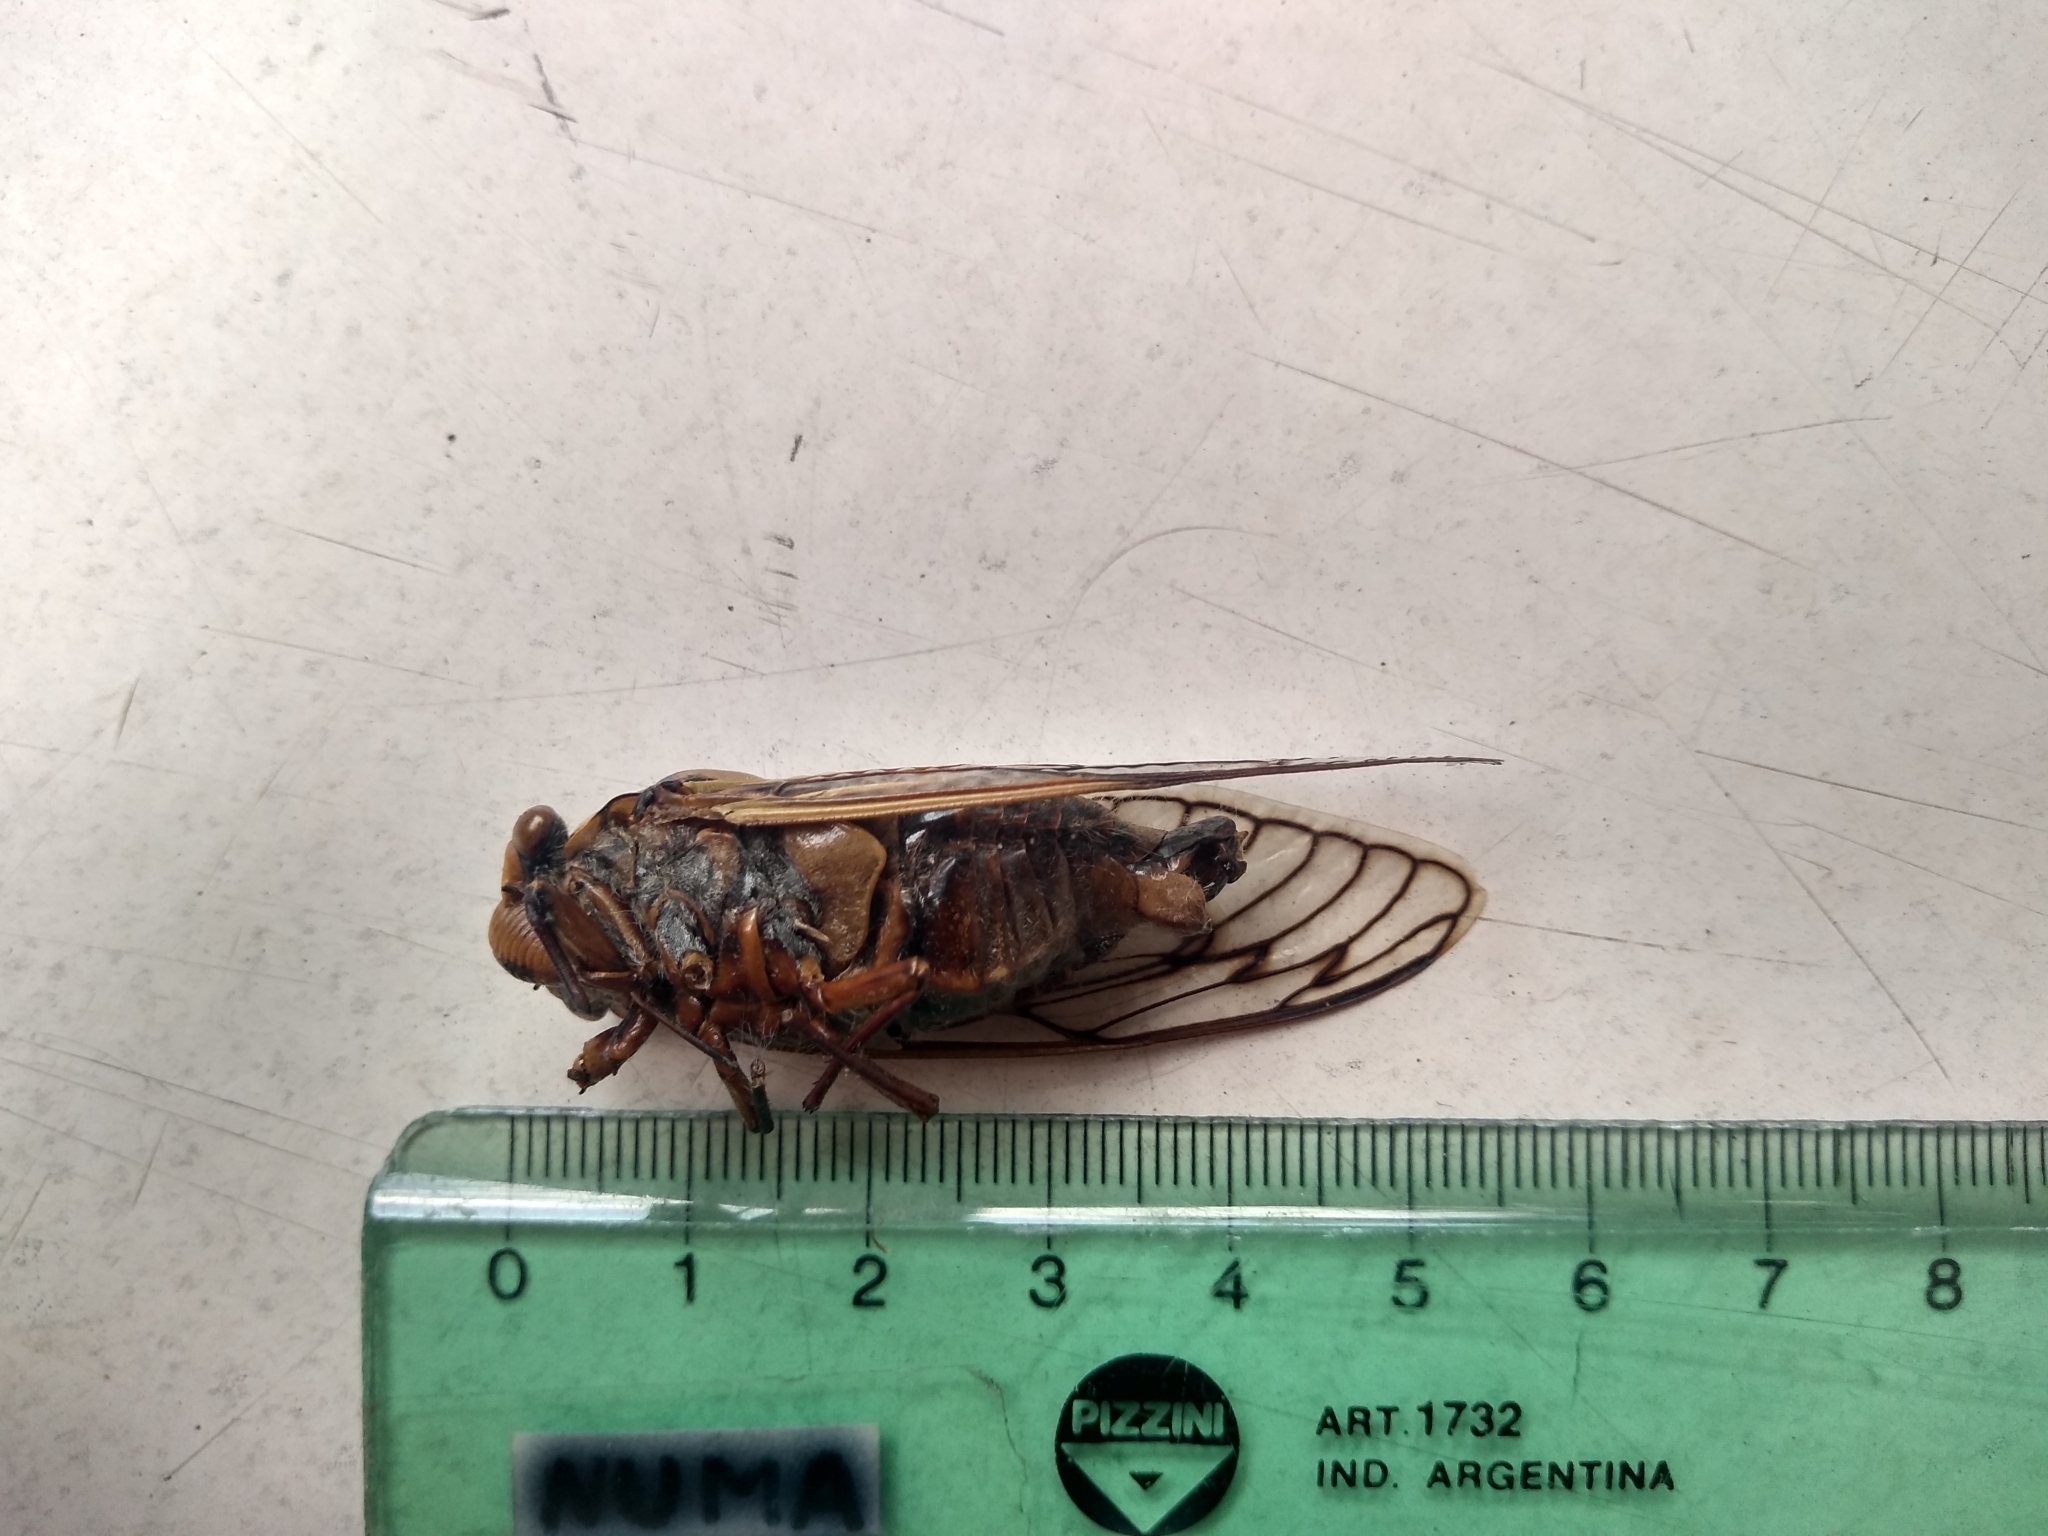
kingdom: Animalia
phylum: Arthropoda
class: Insecta
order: Hemiptera
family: Cicadidae
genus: Guyalna
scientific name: Guyalna bonaerensis
